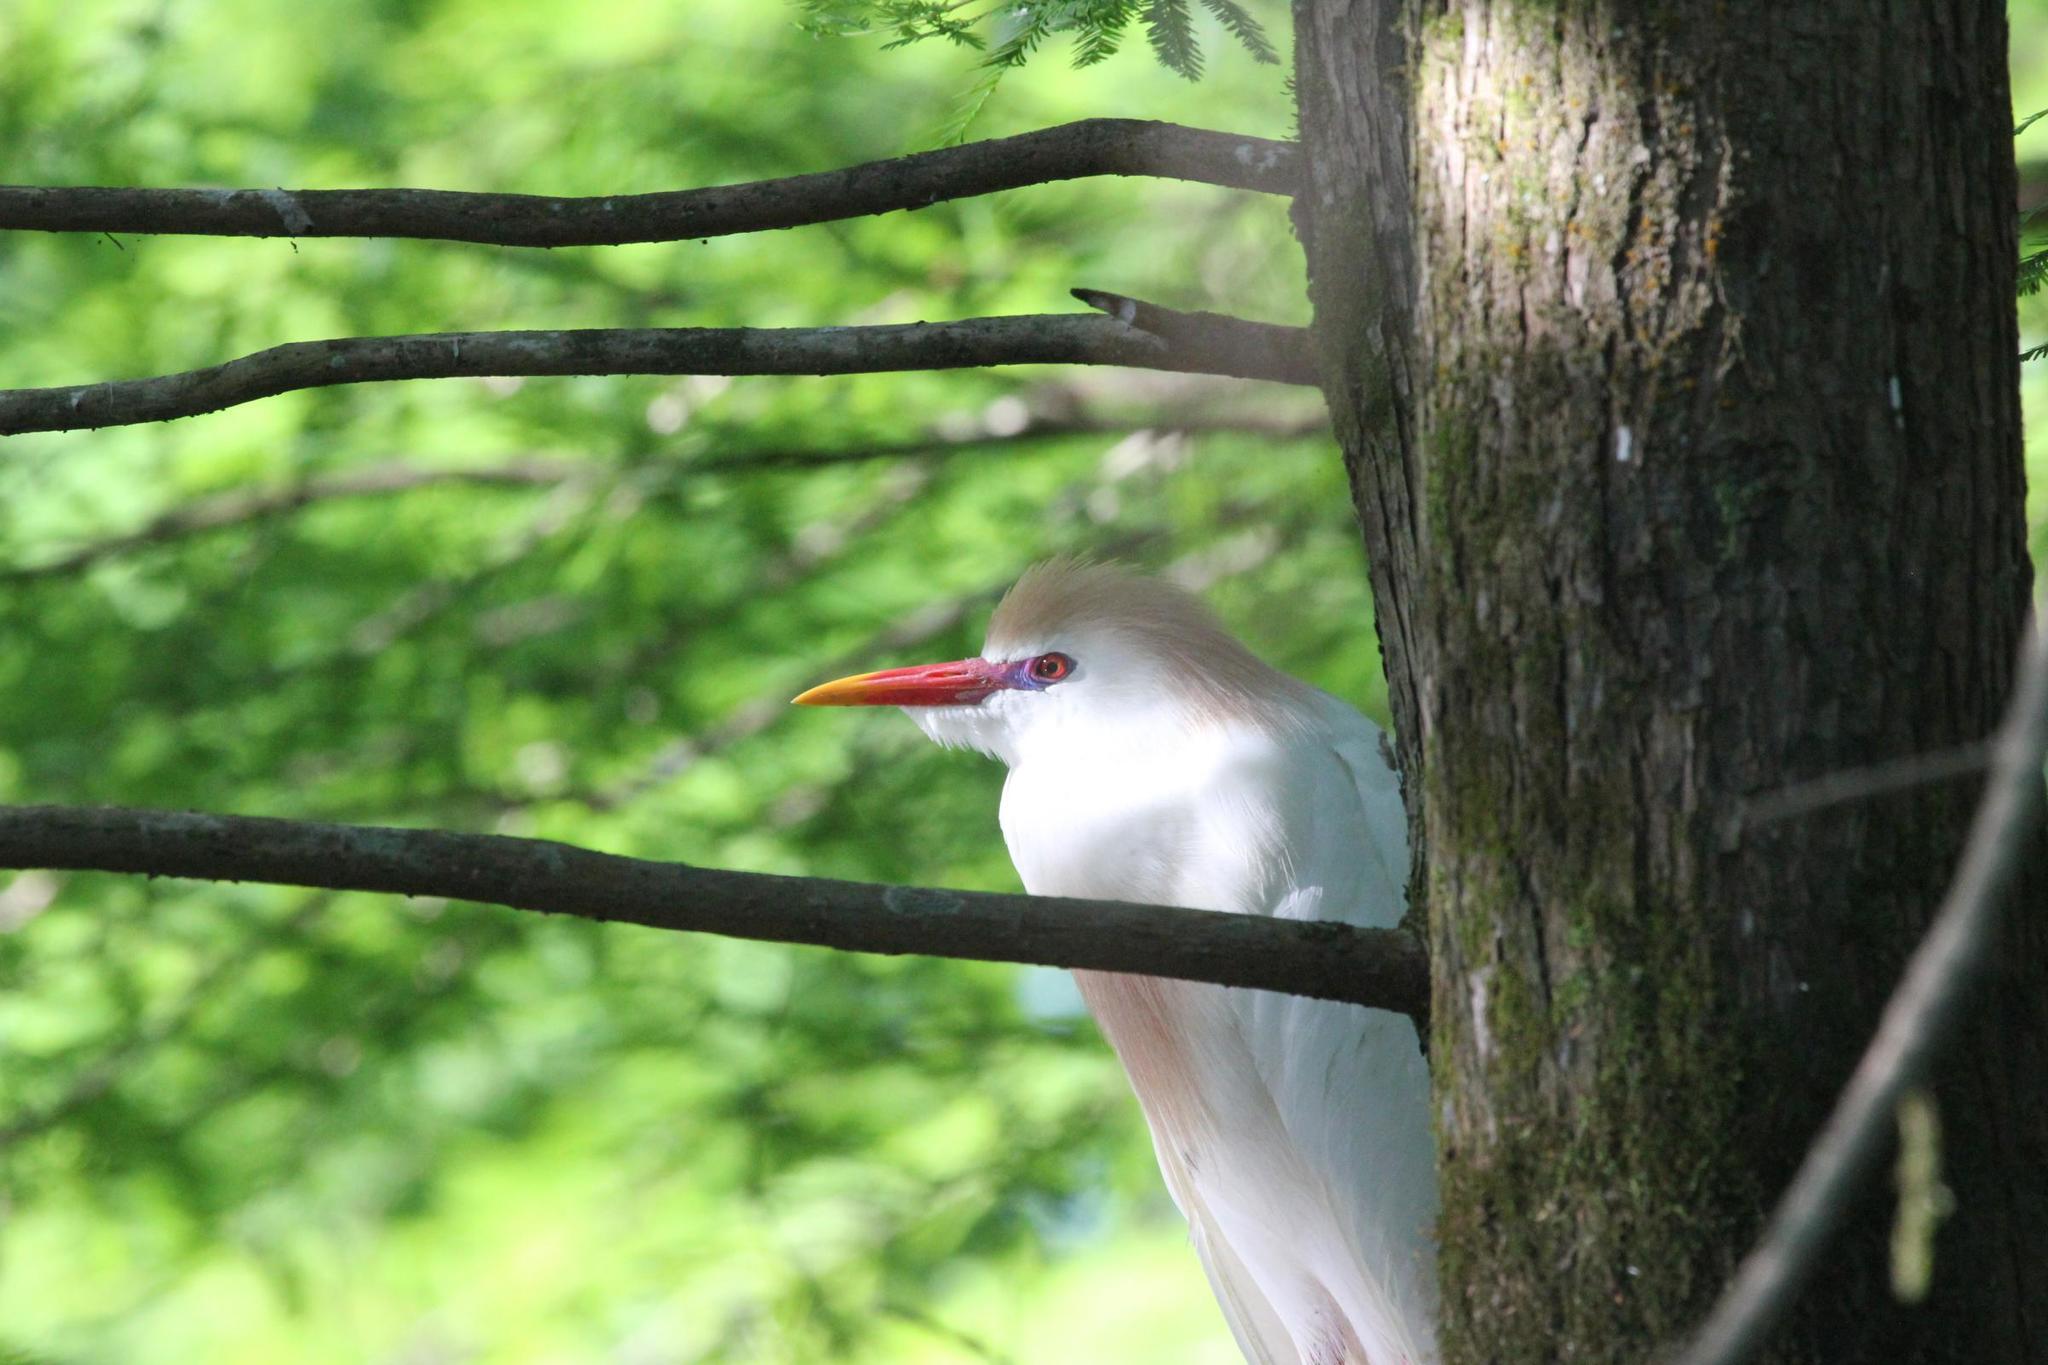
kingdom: Animalia
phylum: Chordata
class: Aves
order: Pelecaniformes
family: Ardeidae
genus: Bubulcus
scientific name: Bubulcus ibis
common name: Cattle egret
